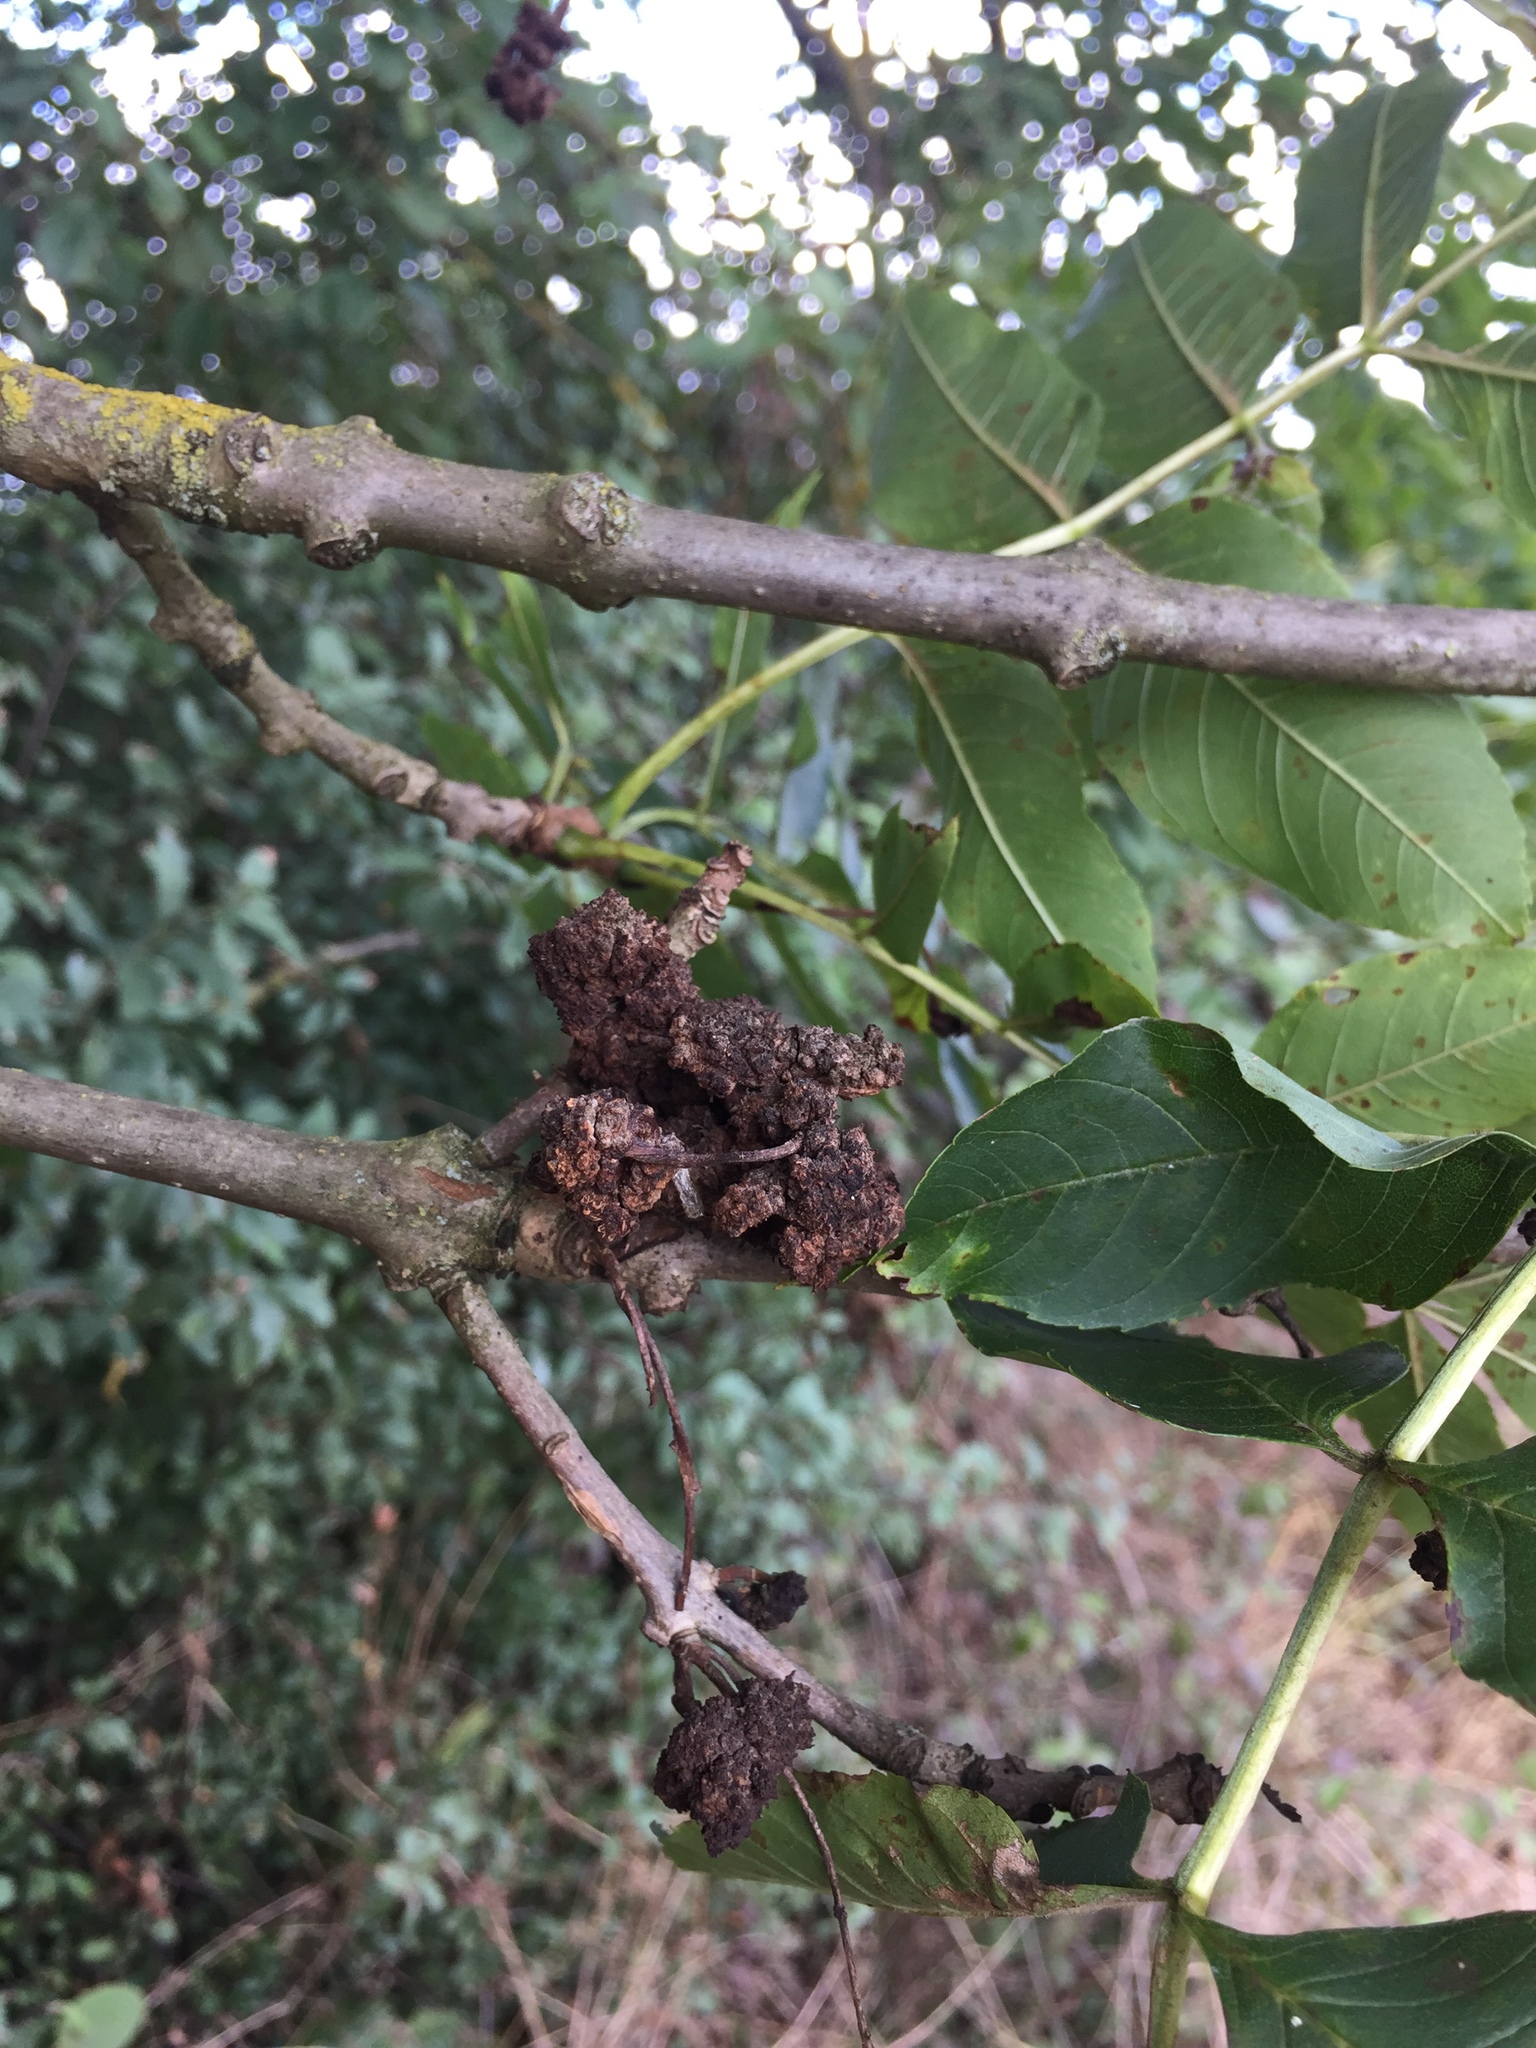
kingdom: Animalia
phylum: Arthropoda
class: Arachnida
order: Trombidiformes
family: Eriophyidae
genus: Aceria
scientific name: Aceria fraxinivora
